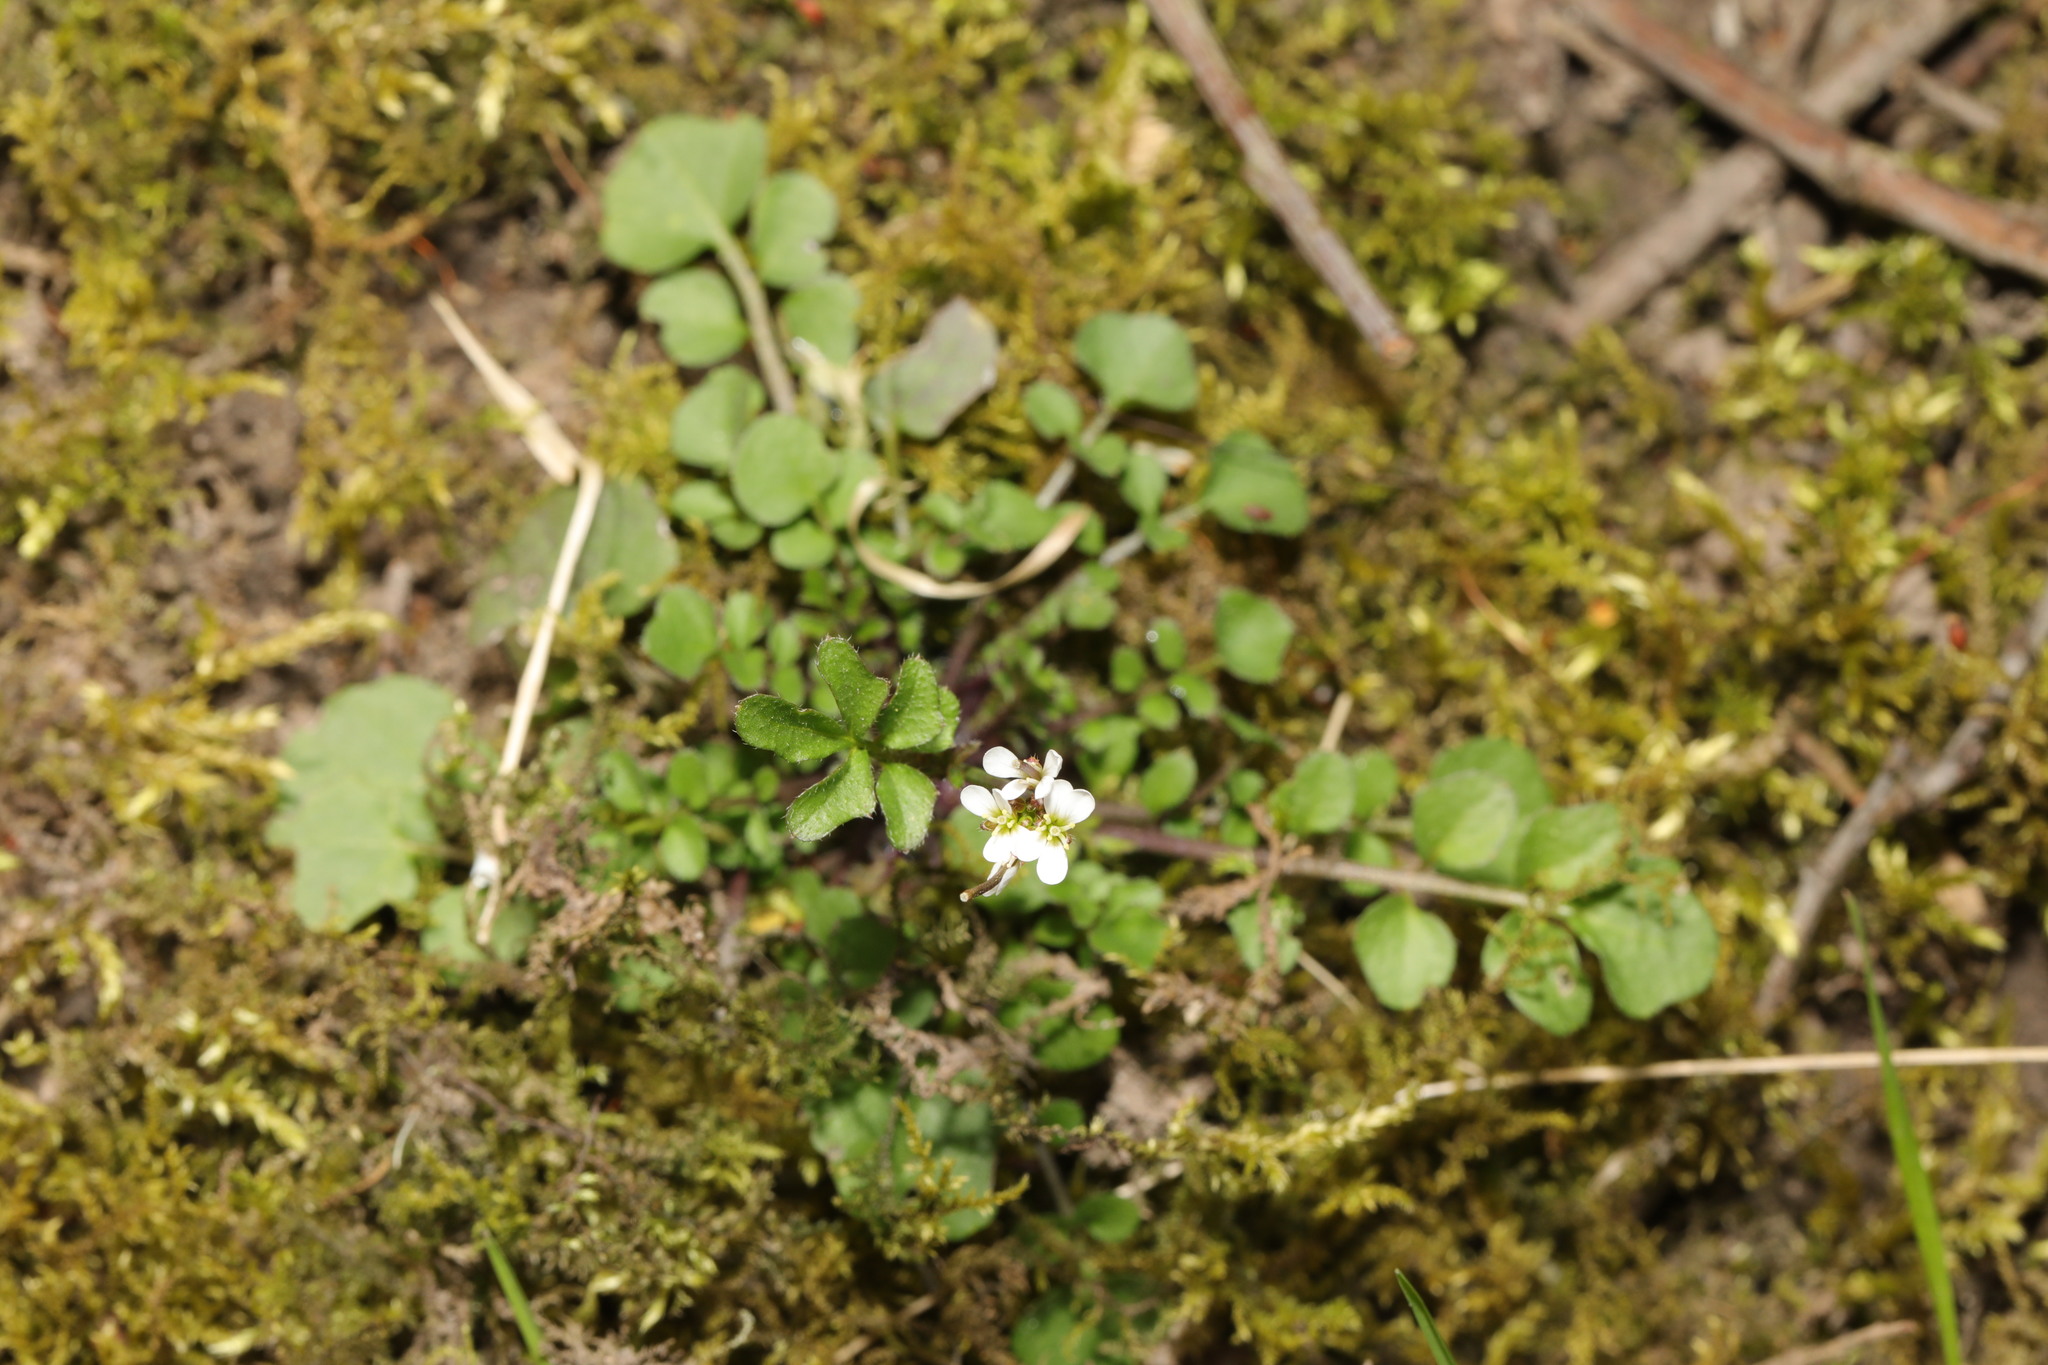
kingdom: Plantae
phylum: Tracheophyta
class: Magnoliopsida
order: Brassicales
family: Brassicaceae
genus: Cardamine
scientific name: Cardamine hirsuta
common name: Hairy bittercress
